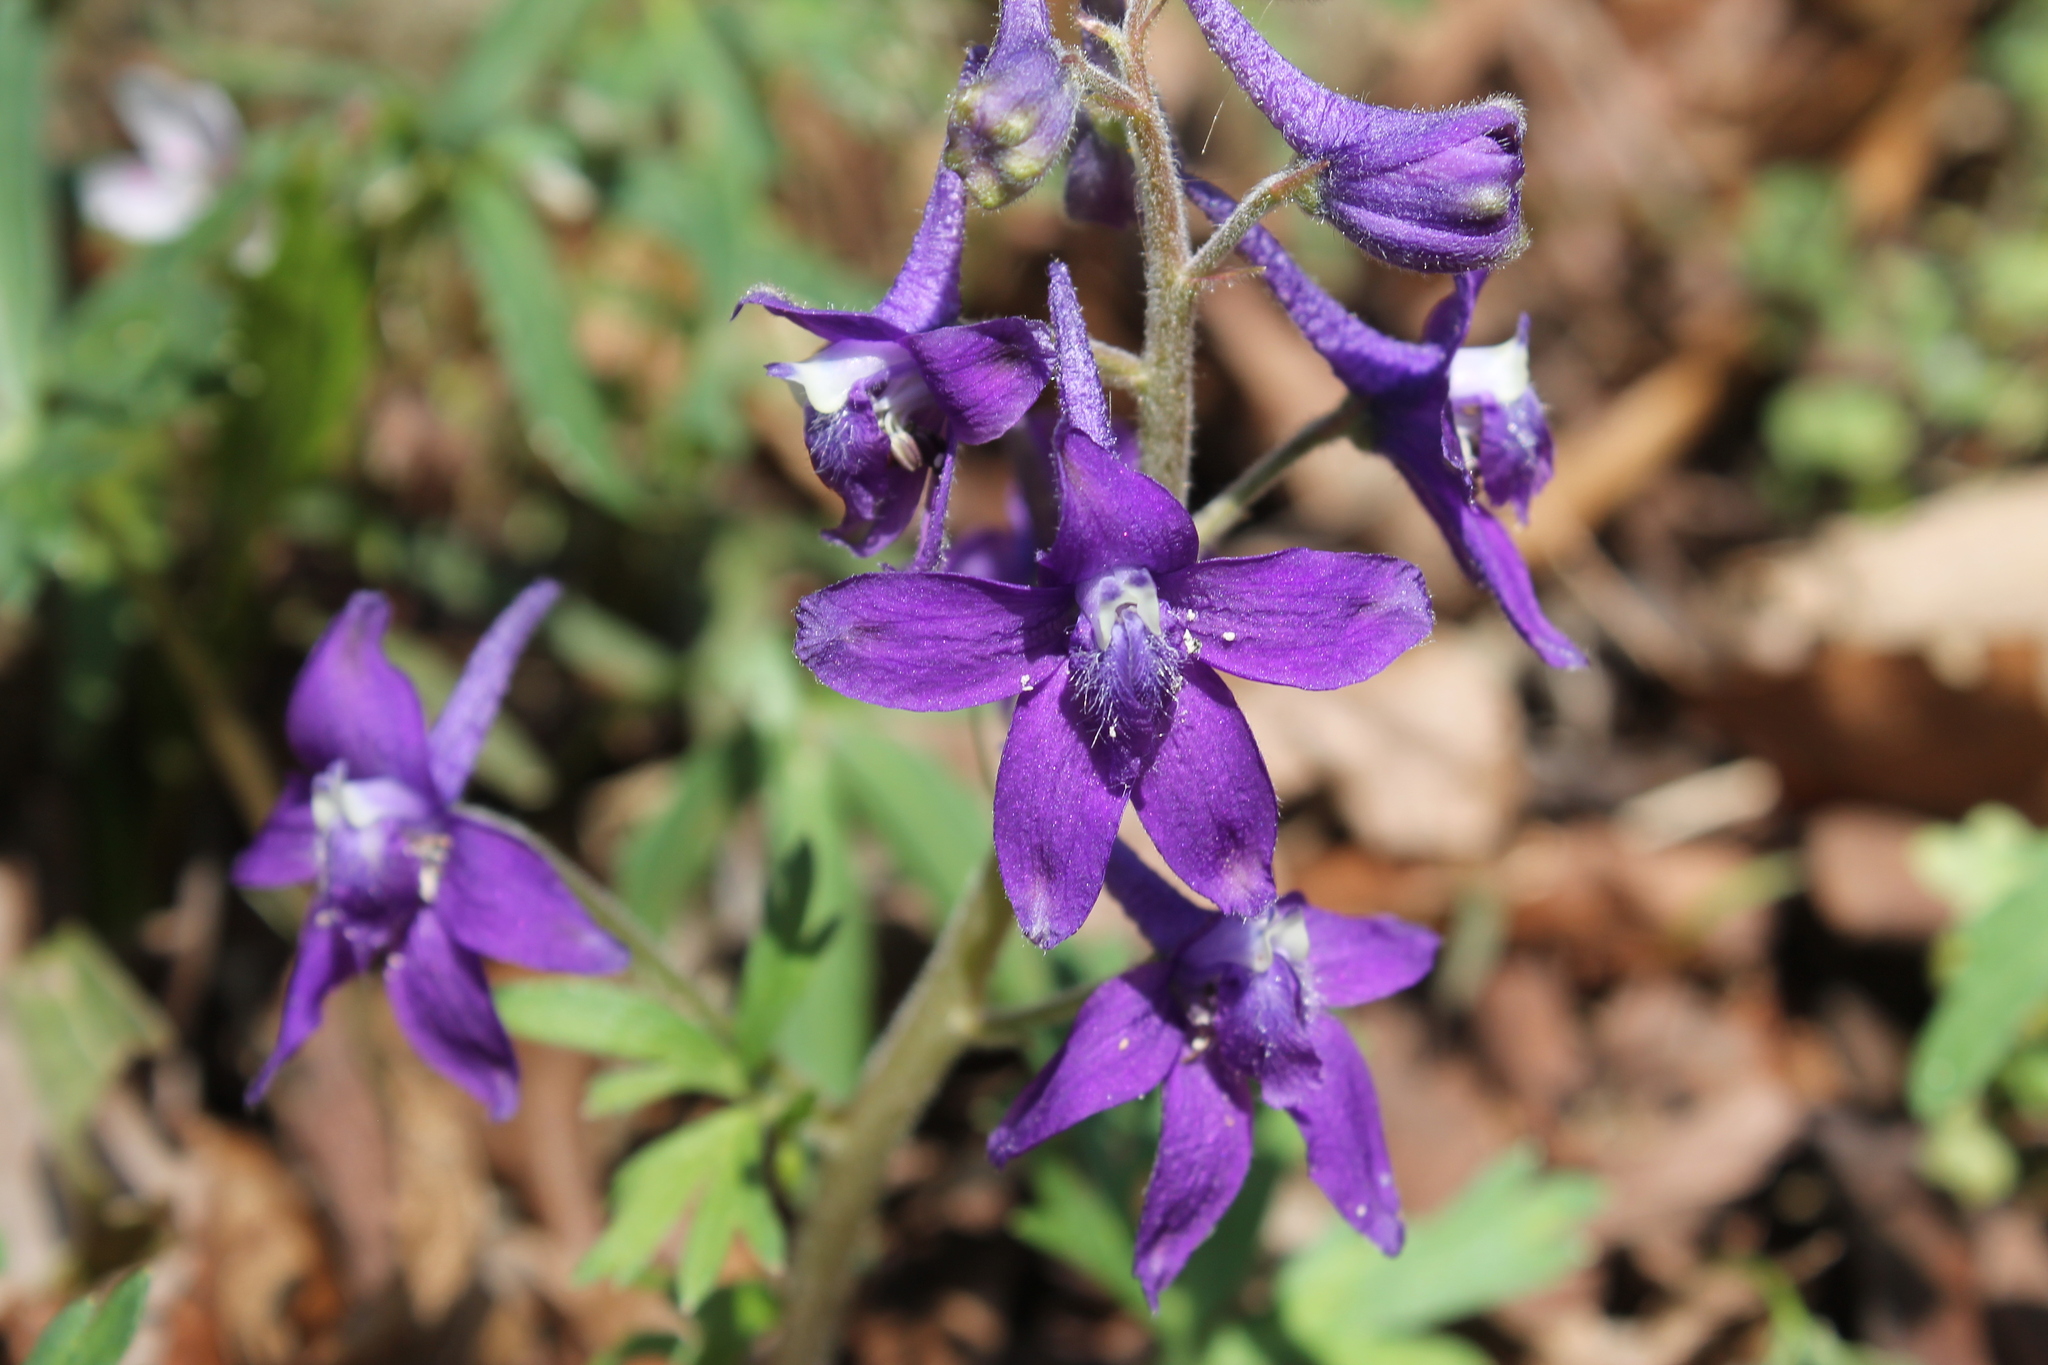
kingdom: Plantae
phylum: Tracheophyta
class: Magnoliopsida
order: Ranunculales
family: Ranunculaceae
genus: Delphinium
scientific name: Delphinium tricorne
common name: Dwarf larkspur
